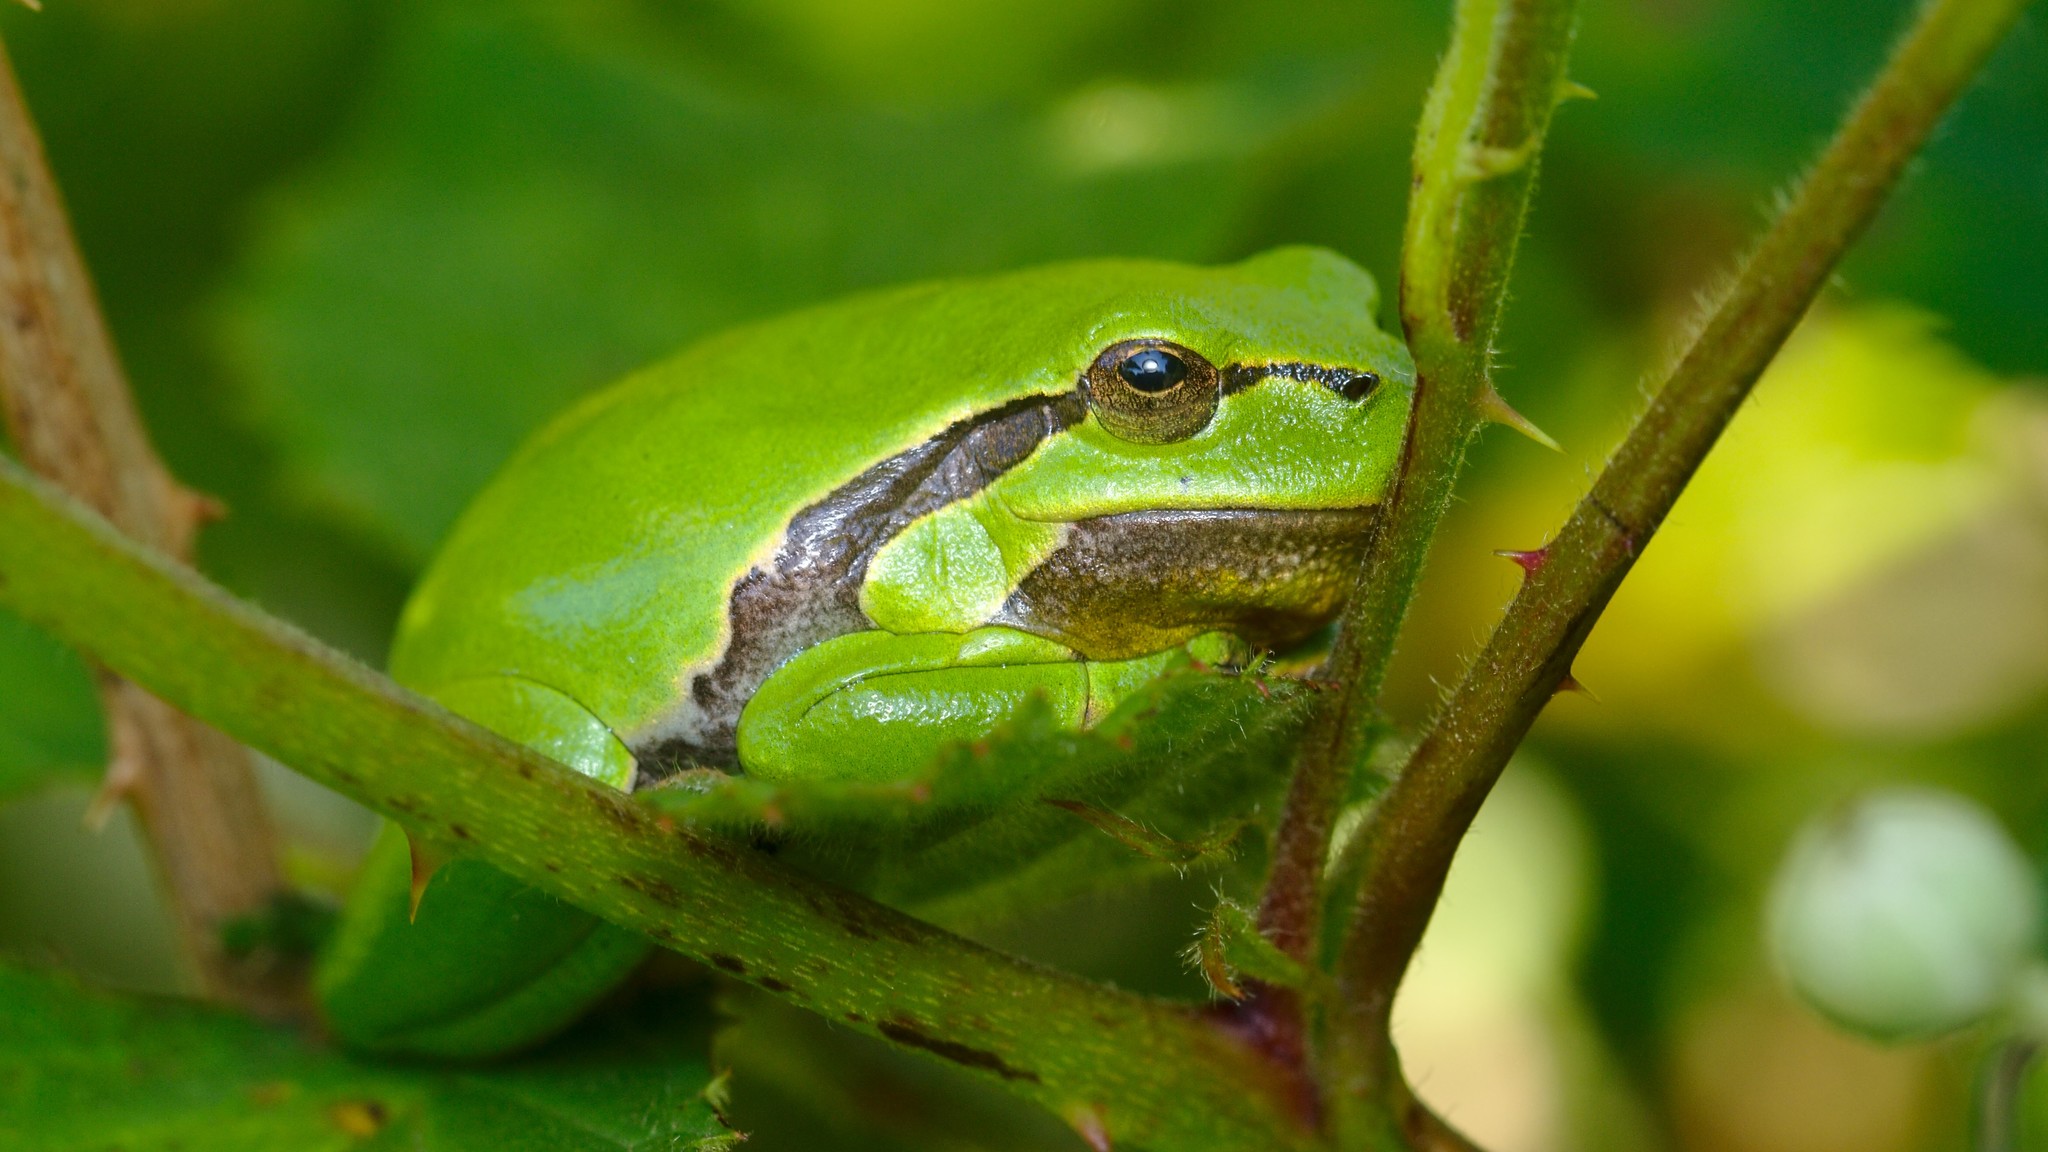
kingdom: Animalia
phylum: Chordata
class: Amphibia
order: Anura
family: Hylidae
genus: Hyla
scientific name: Hyla arborea
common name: Common tree frog
